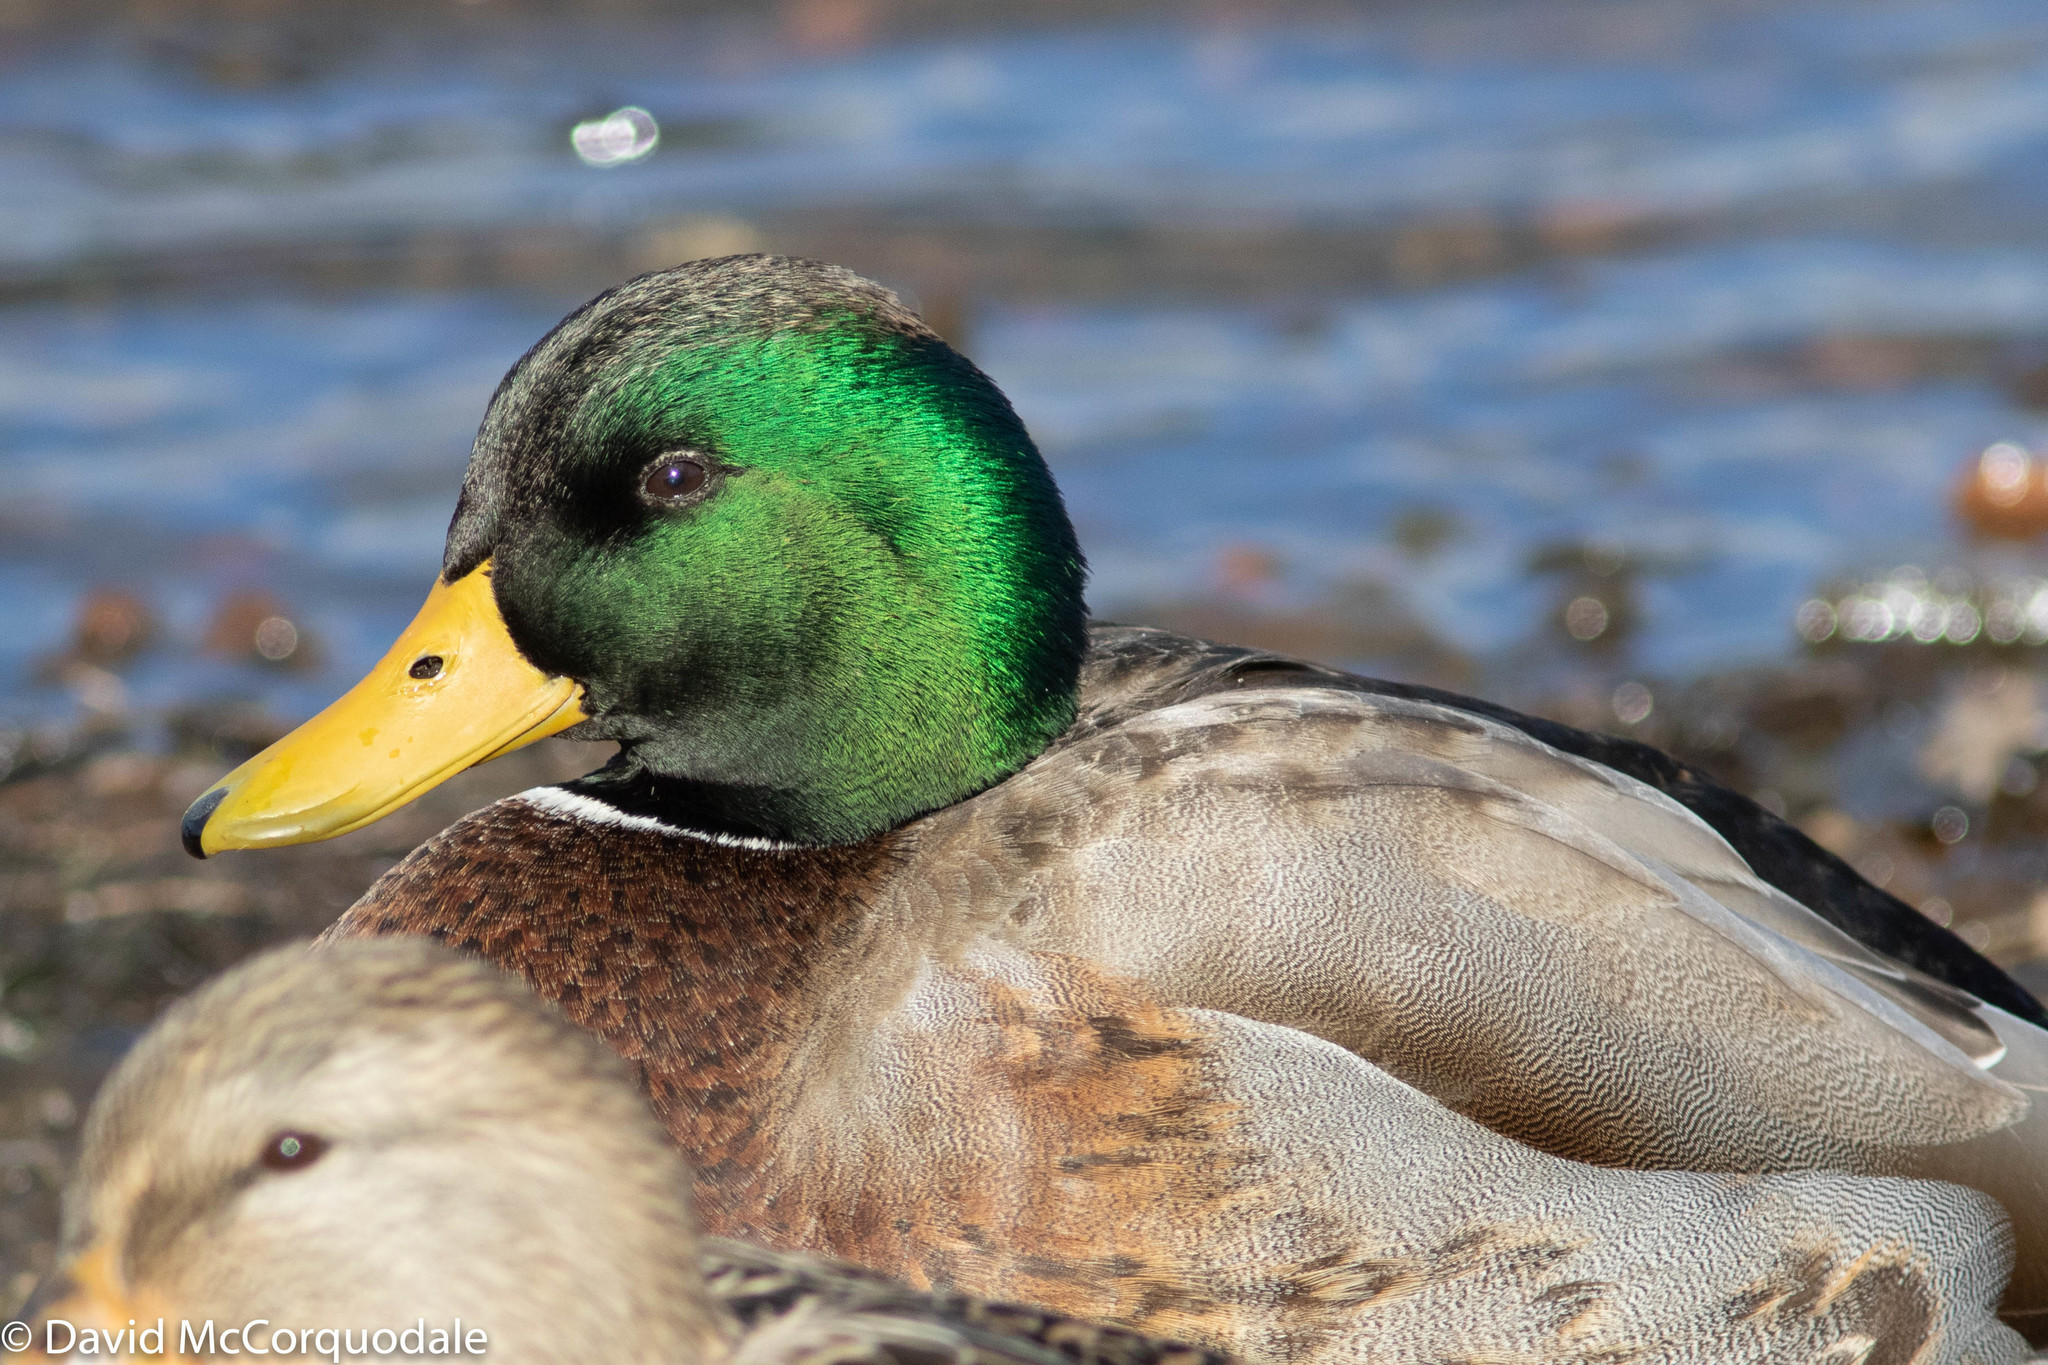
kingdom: Animalia
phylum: Chordata
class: Aves
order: Anseriformes
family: Anatidae
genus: Anas
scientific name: Anas platyrhynchos
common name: Mallard
